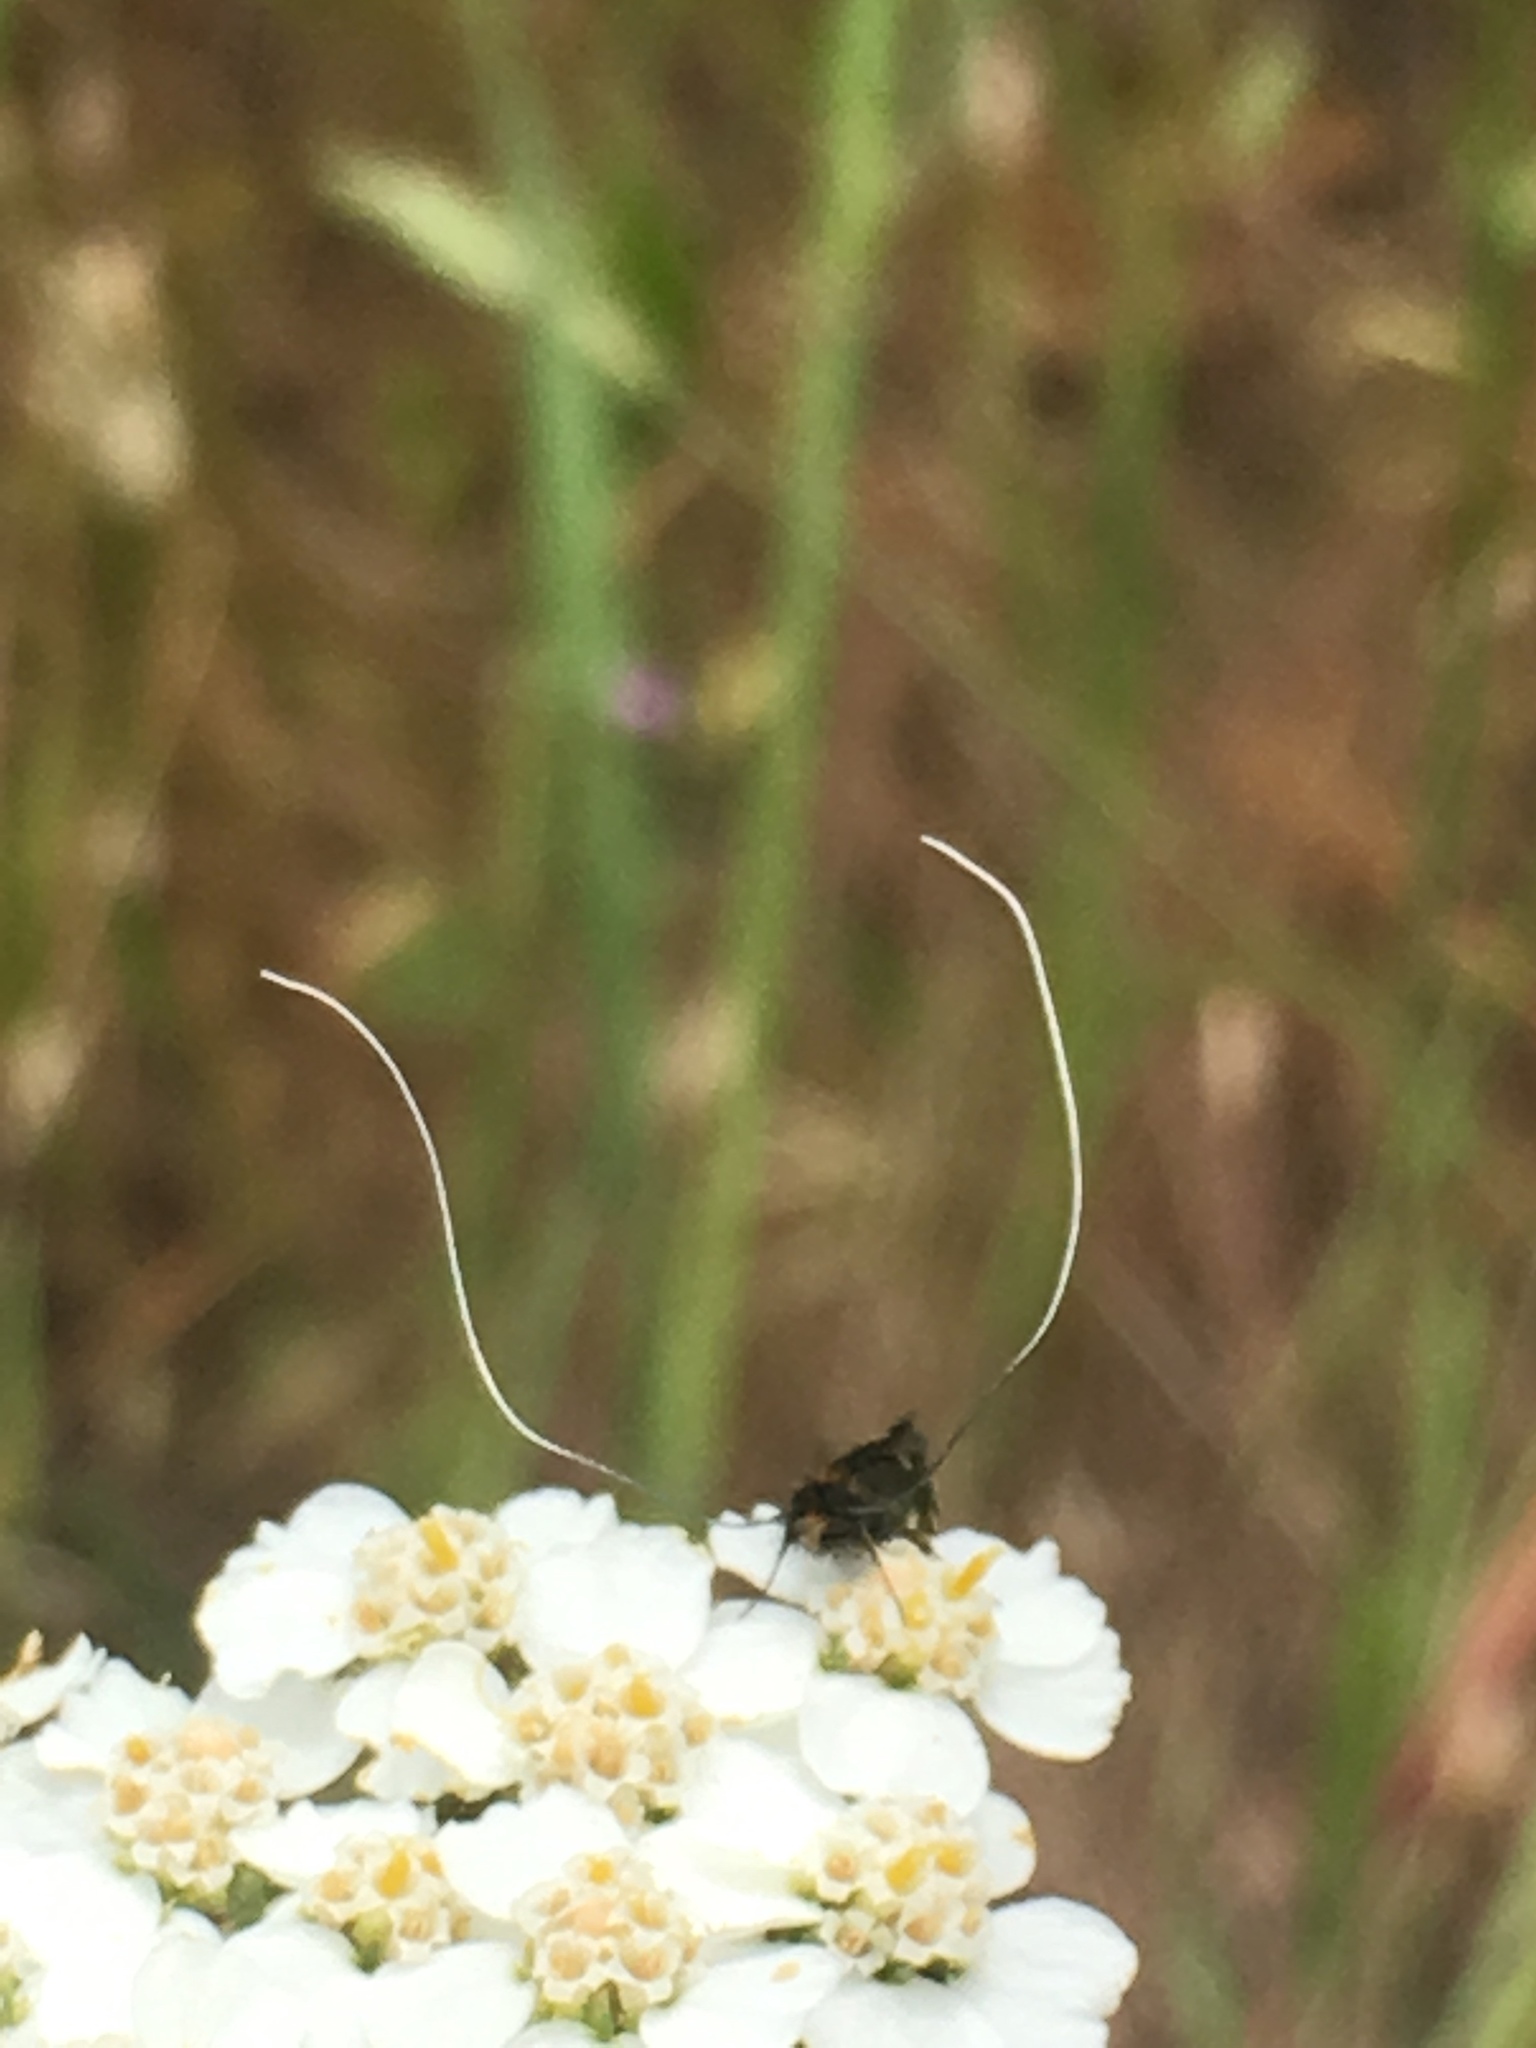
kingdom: Animalia
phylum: Arthropoda
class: Insecta
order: Lepidoptera
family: Adelidae
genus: Adela
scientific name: Adela flammeusella
